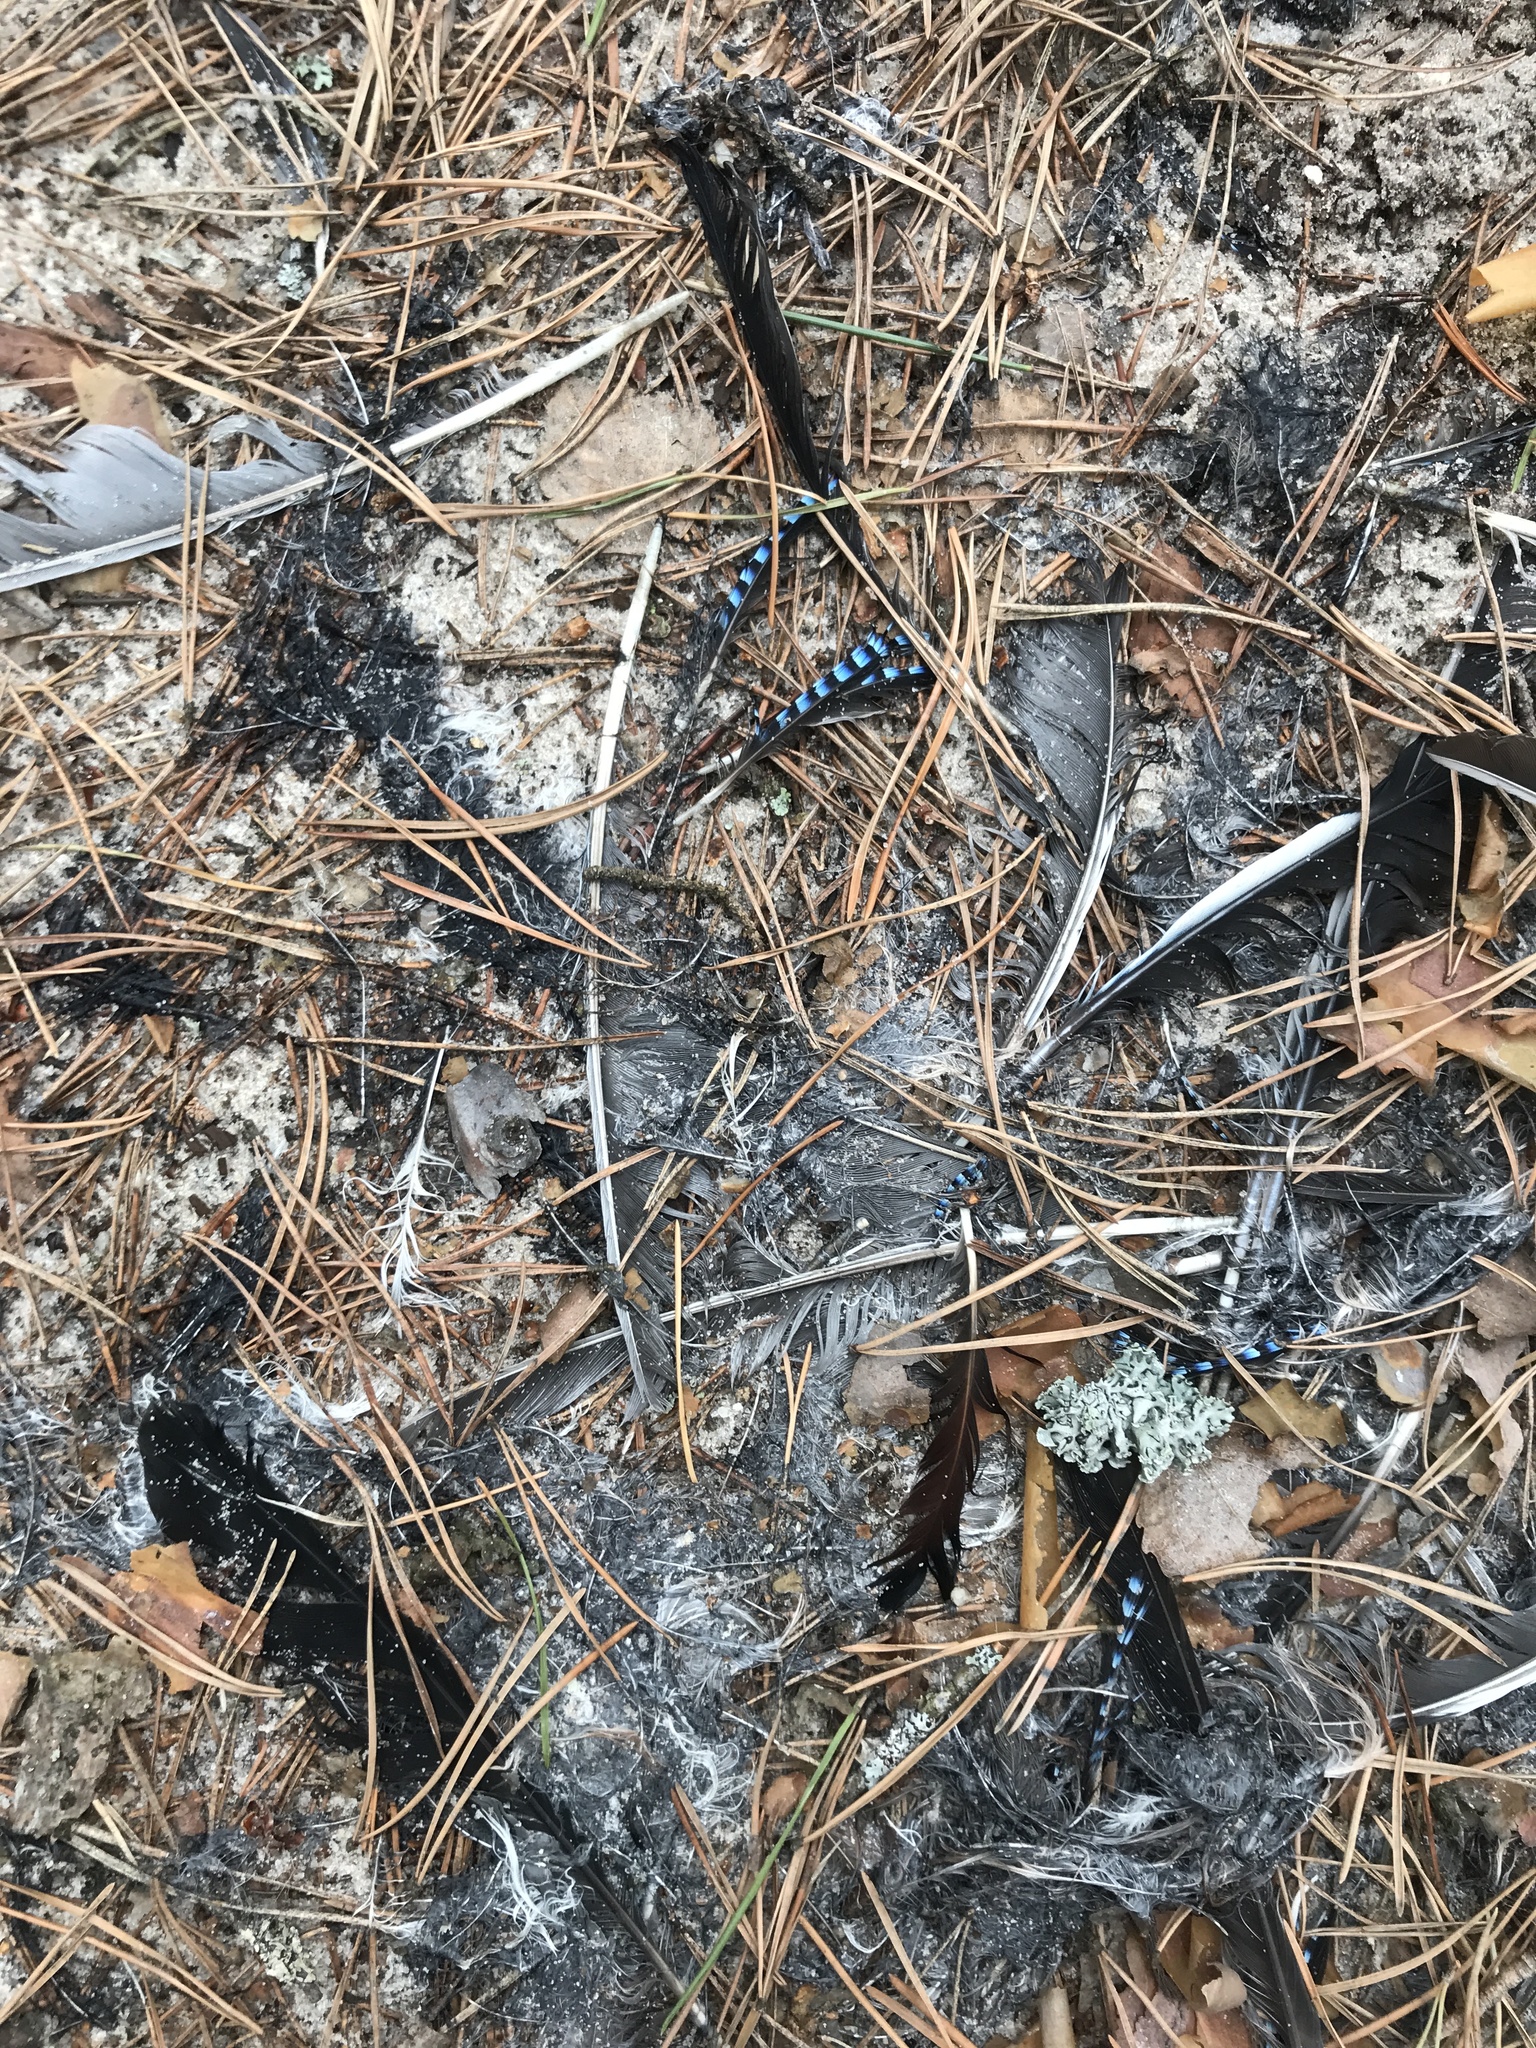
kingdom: Animalia
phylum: Chordata
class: Aves
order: Passeriformes
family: Corvidae
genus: Garrulus
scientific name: Garrulus glandarius
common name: Eurasian jay
